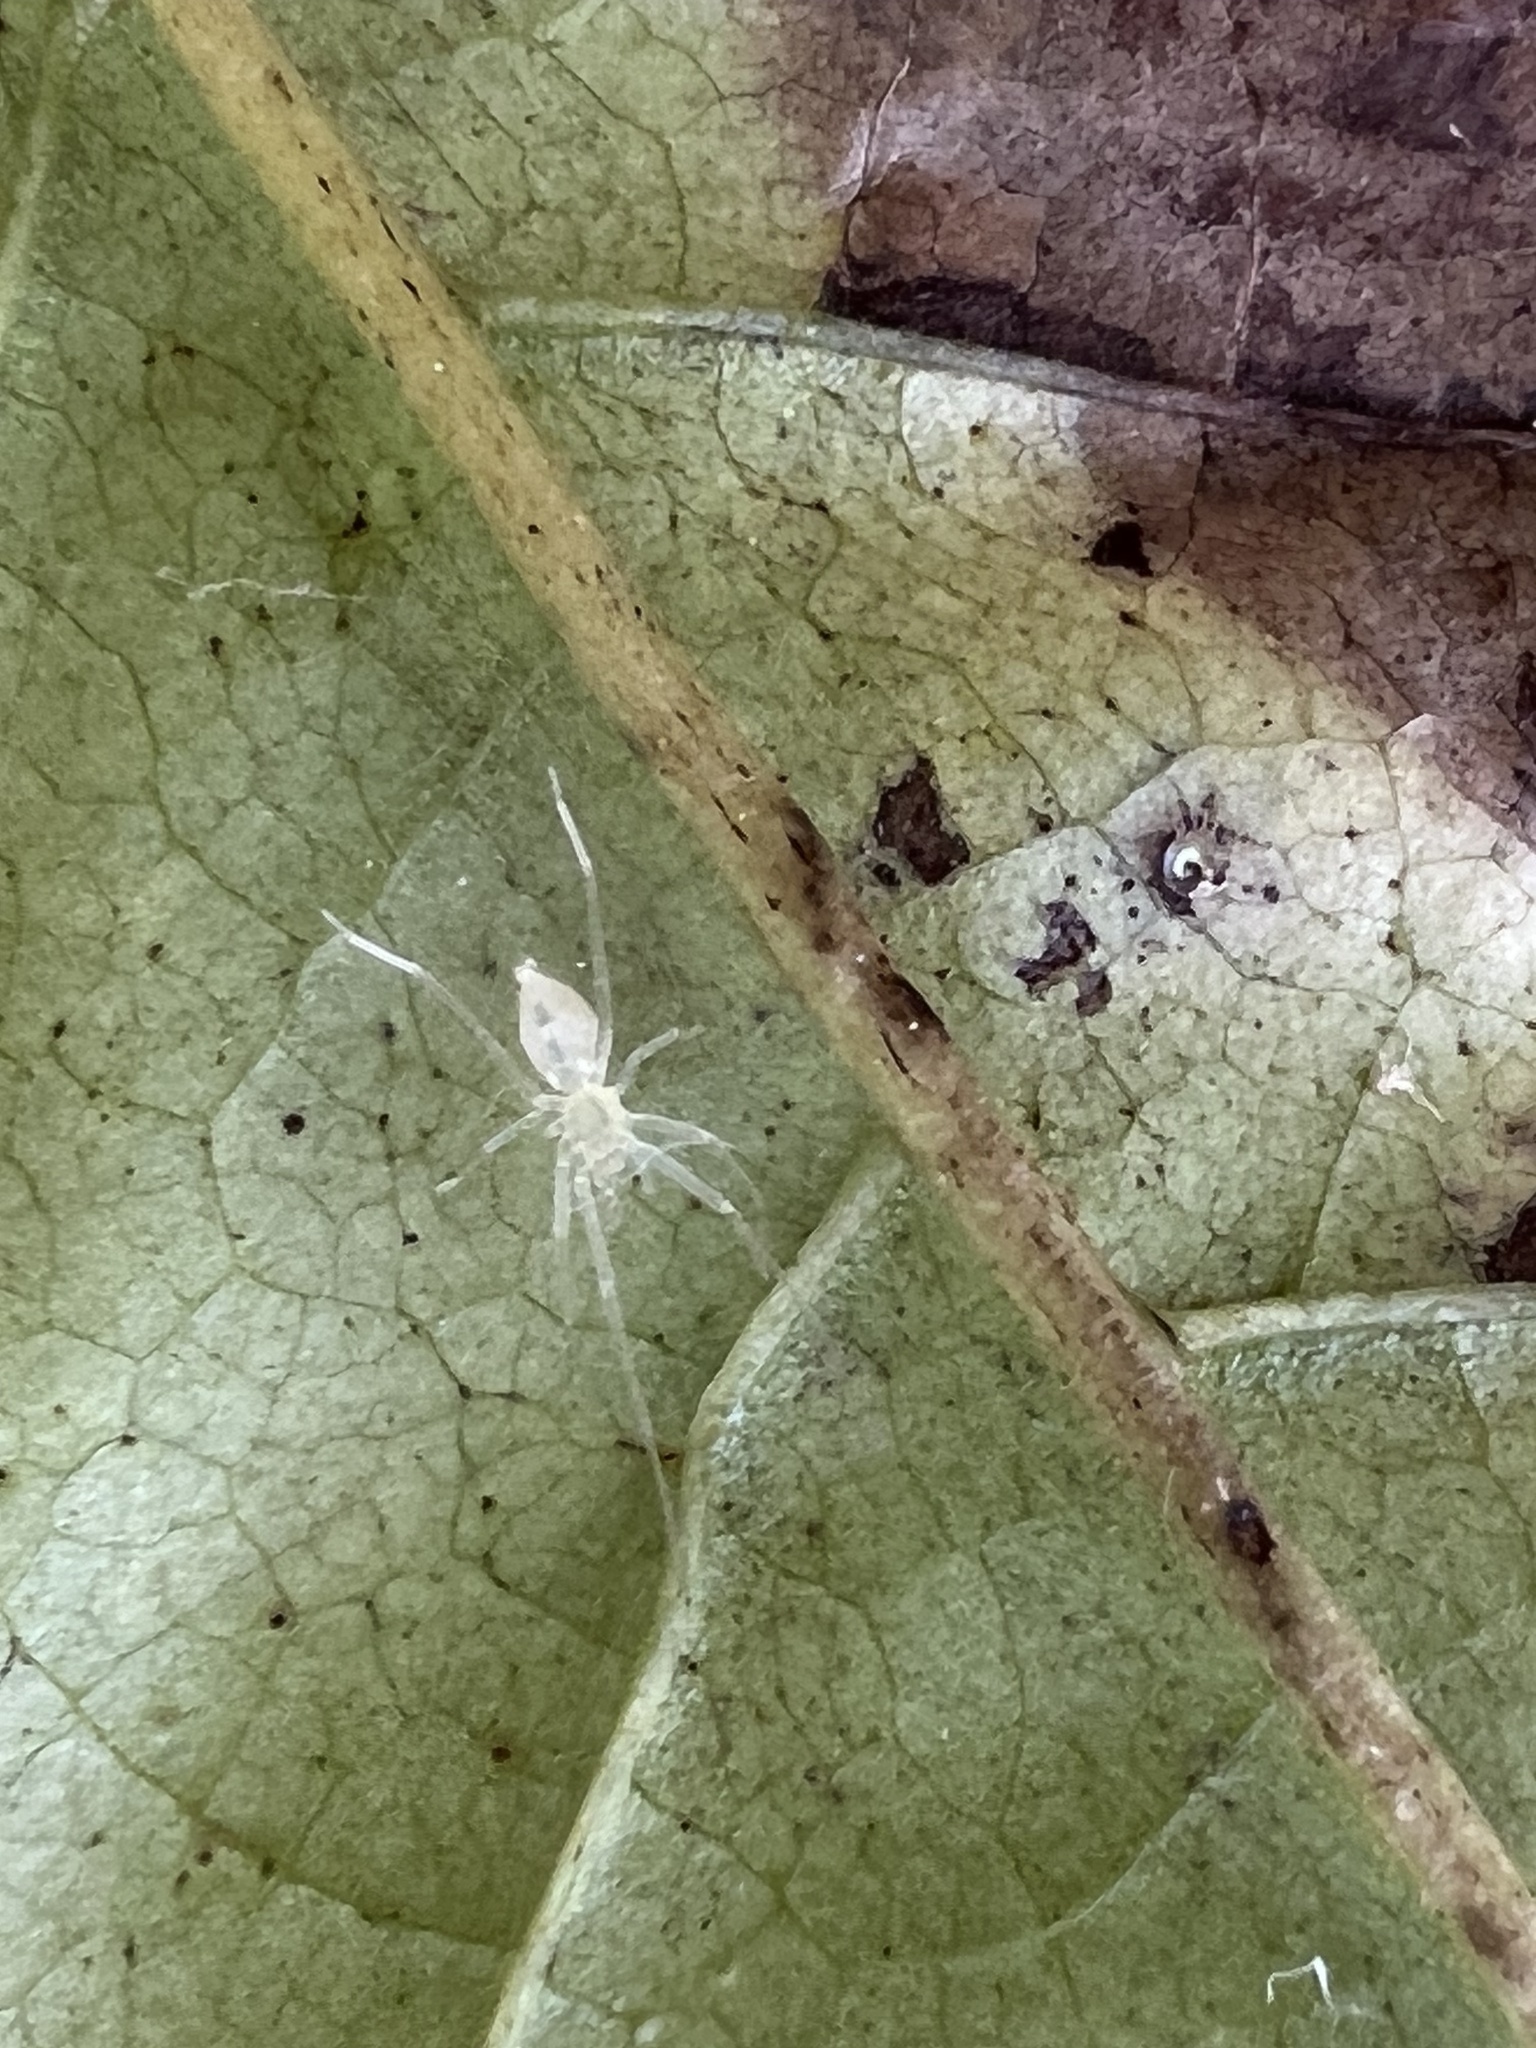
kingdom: Animalia
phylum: Arthropoda
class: Arachnida
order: Araneae
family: Anyphaenidae
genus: Wulfila
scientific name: Wulfila albens
